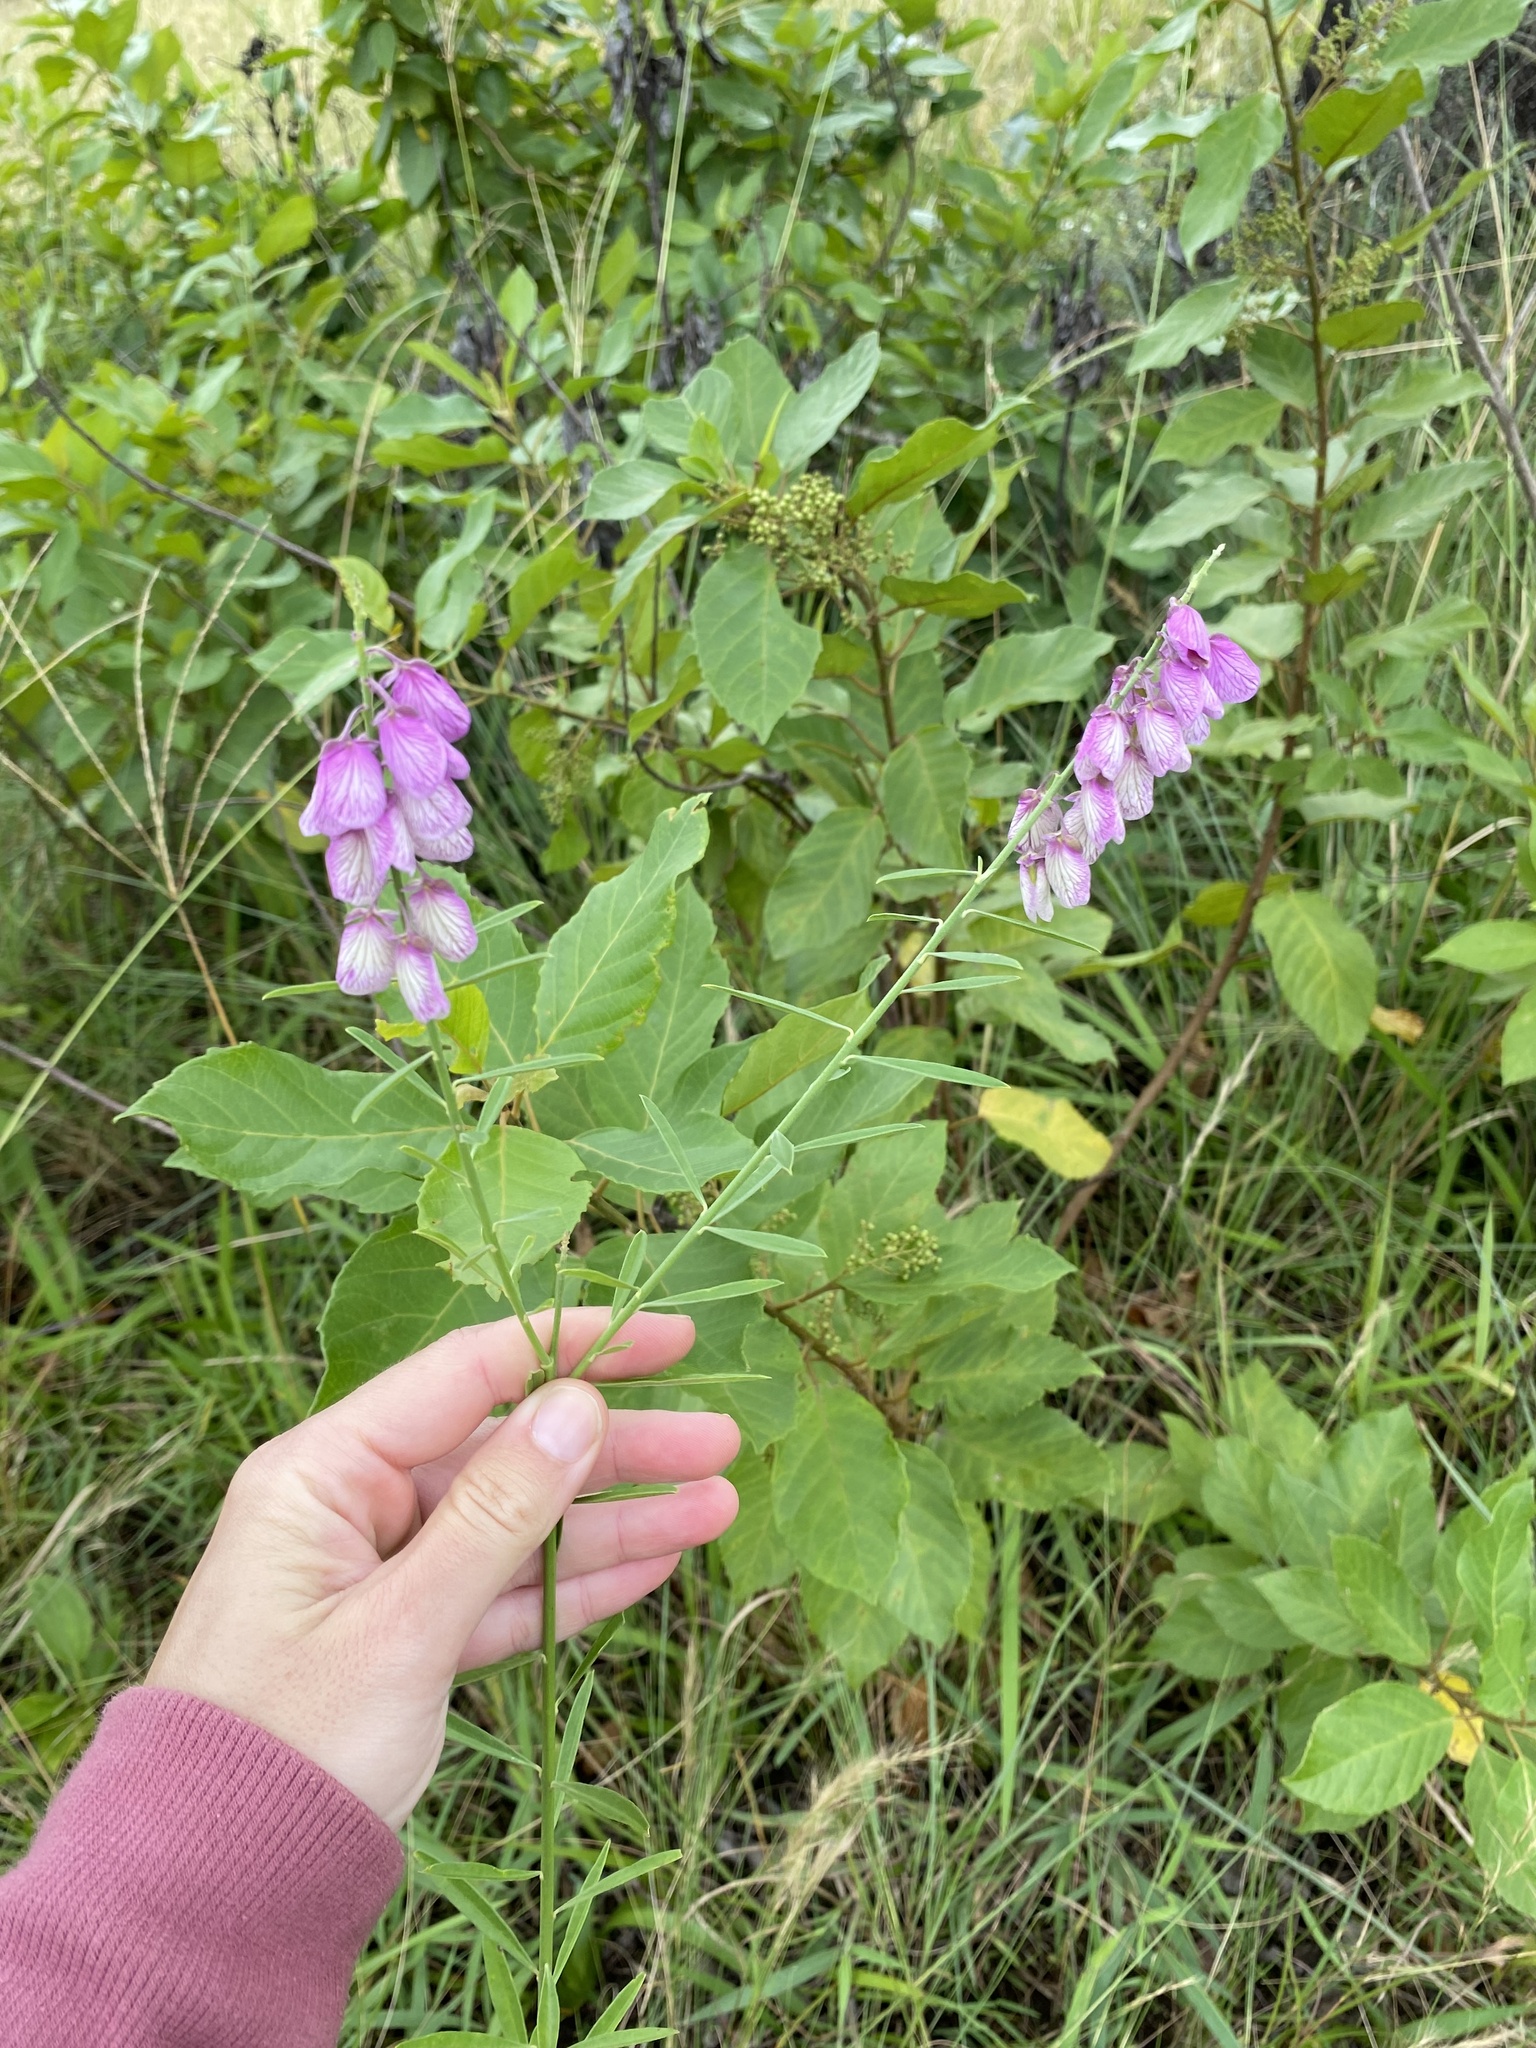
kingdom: Plantae
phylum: Tracheophyta
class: Magnoliopsida
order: Fabales
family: Polygalaceae
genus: Polygala
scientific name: Polygala virgata
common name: Milkwort
